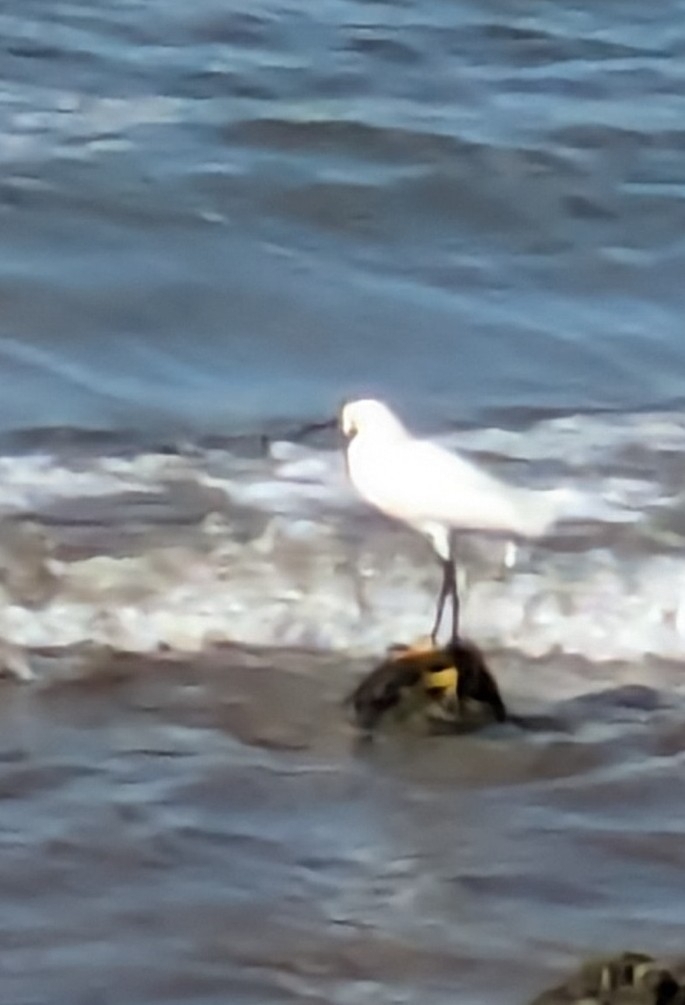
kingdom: Animalia
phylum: Chordata
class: Aves
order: Pelecaniformes
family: Ardeidae
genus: Egretta
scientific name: Egretta thula
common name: Snowy egret
